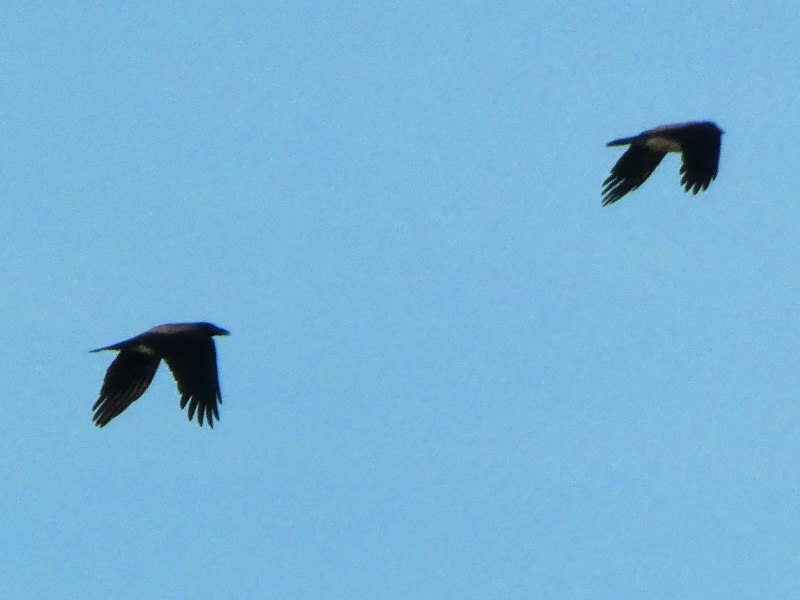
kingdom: Animalia
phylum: Chordata
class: Aves
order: Passeriformes
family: Corvidae
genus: Corvus
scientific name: Corvus cornix
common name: Hooded crow
